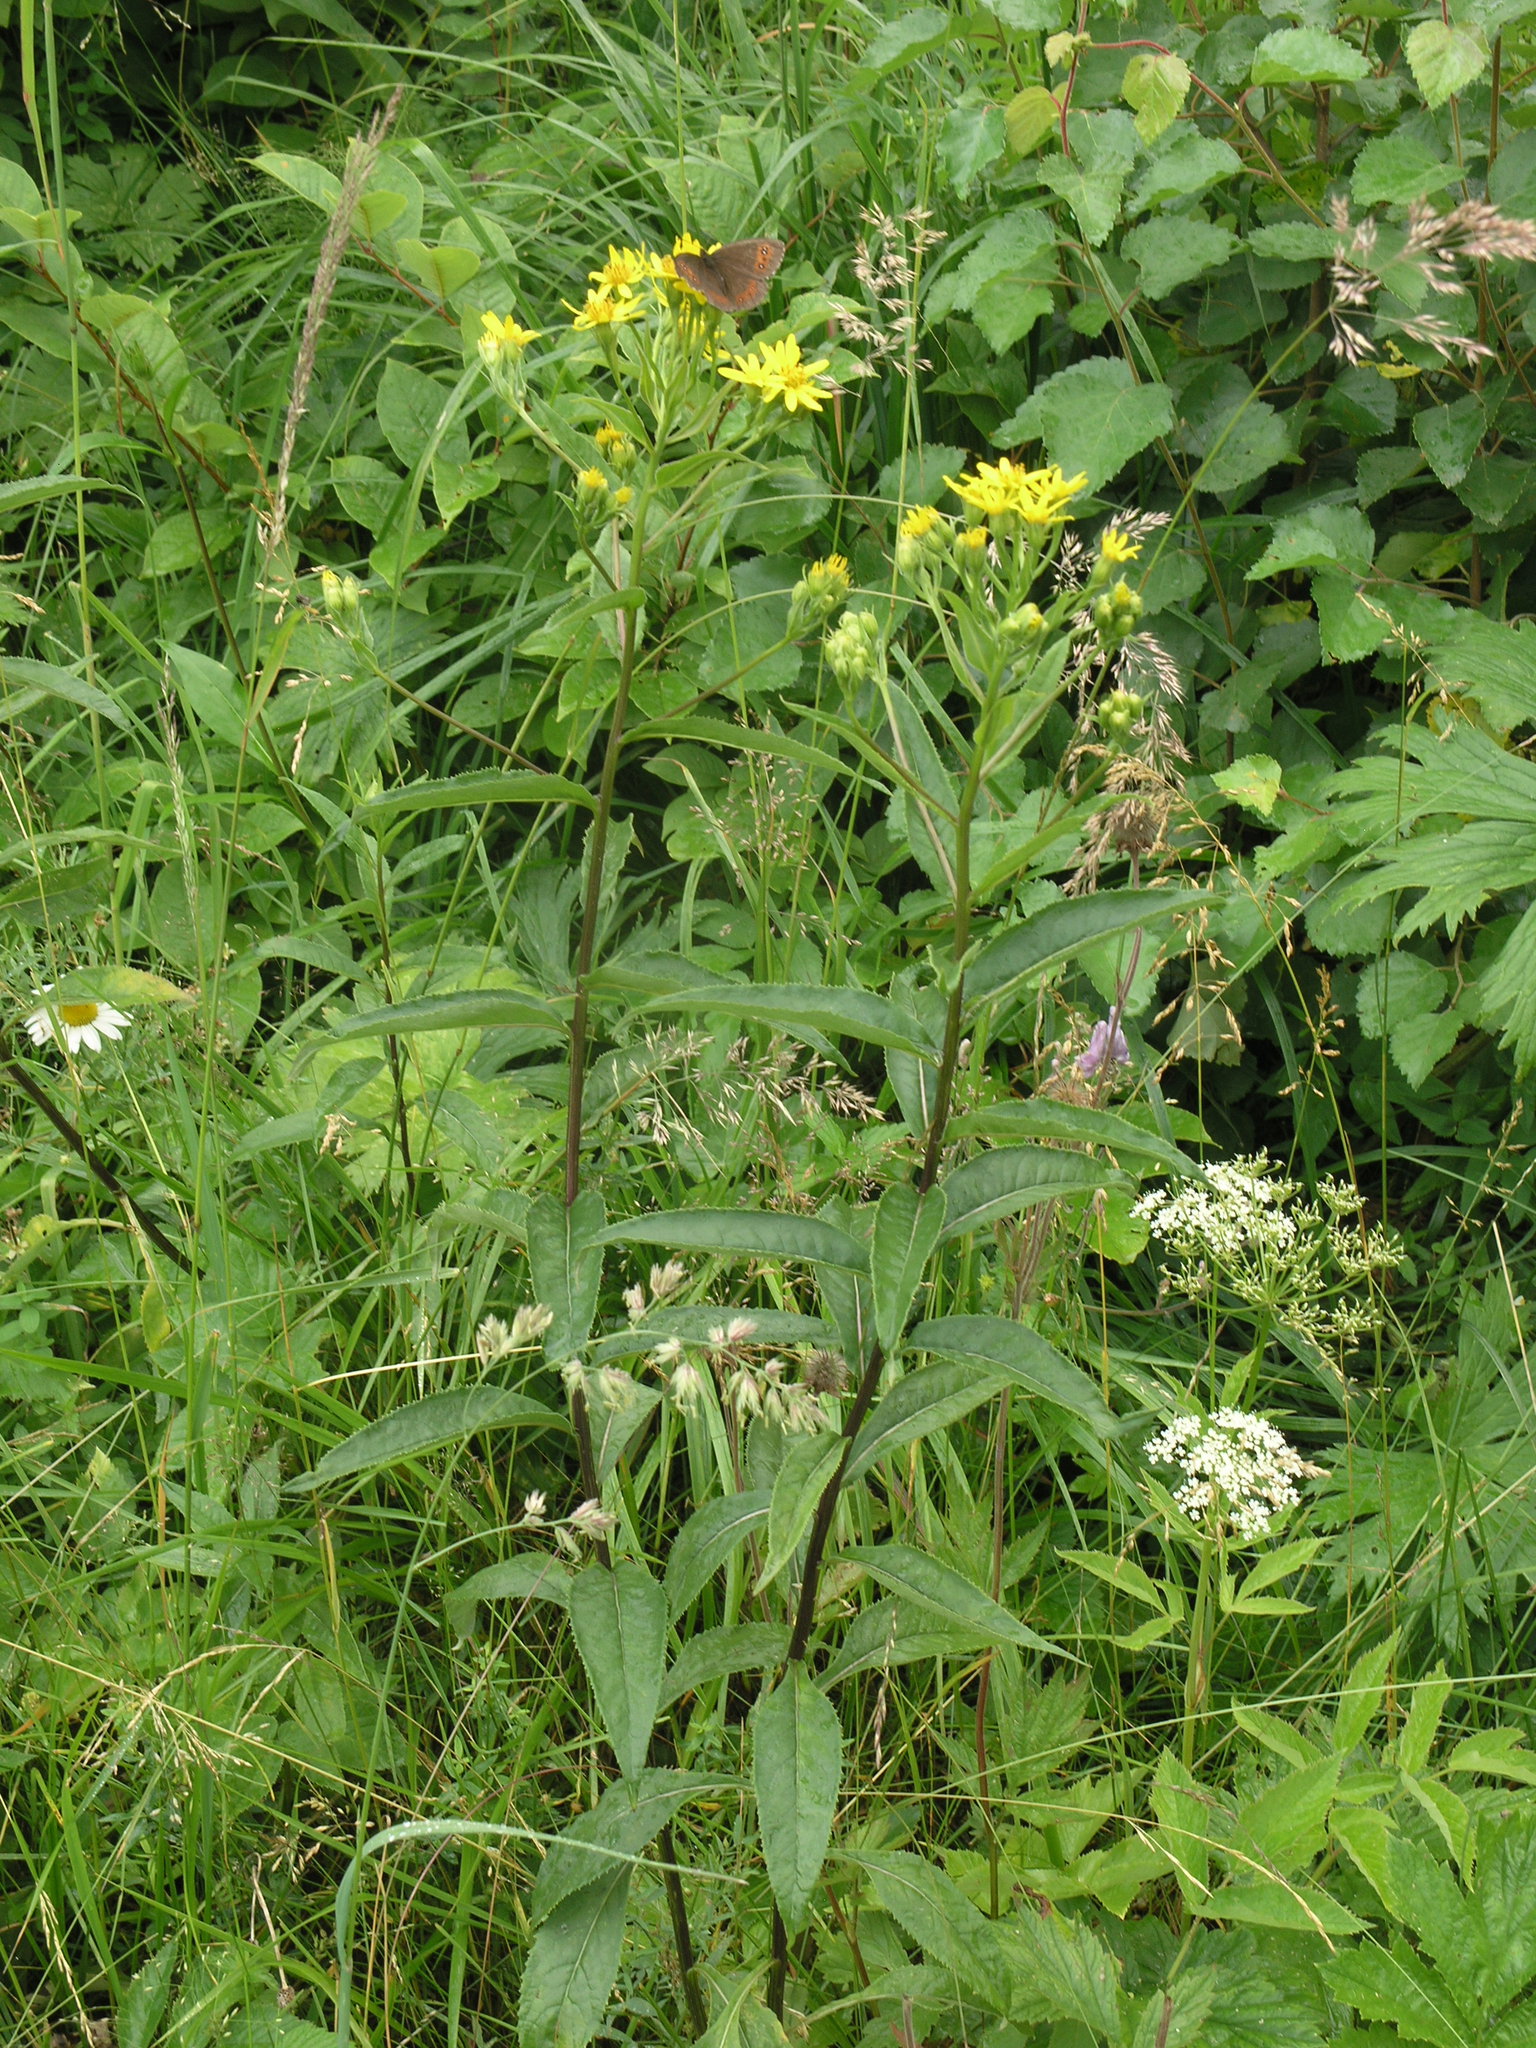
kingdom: Plantae
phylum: Tracheophyta
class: Magnoliopsida
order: Asterales
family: Asteraceae
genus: Senecio
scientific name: Senecio sarracenicus
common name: Broad-leaved ragwort
